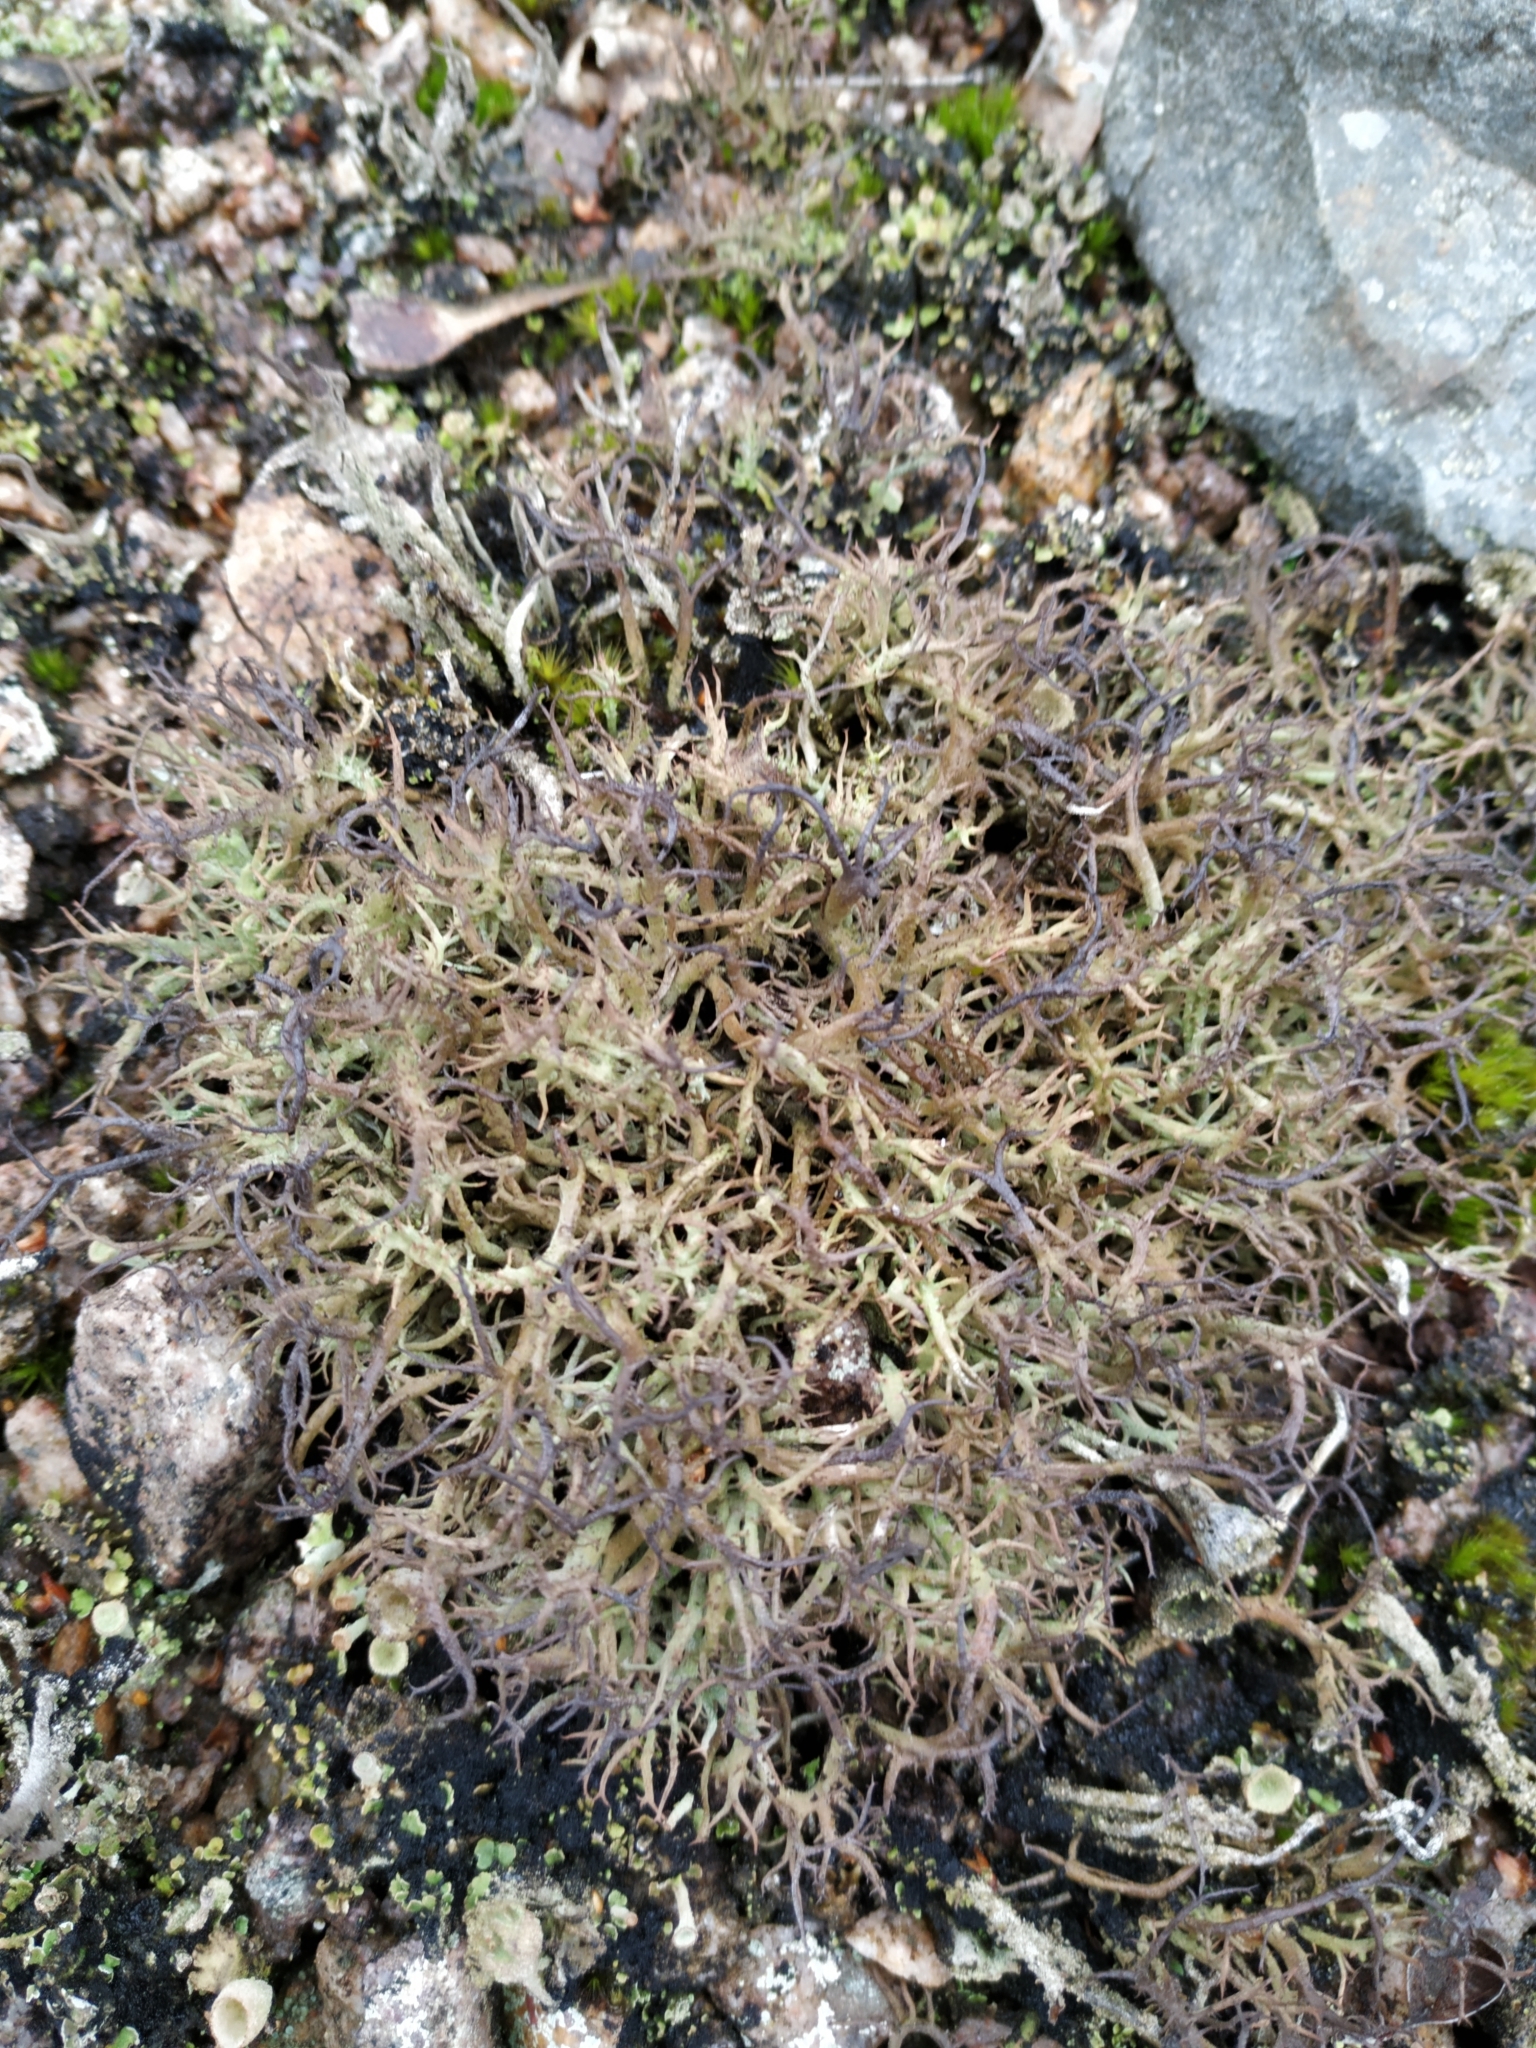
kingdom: Fungi
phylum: Ascomycota
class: Lecanoromycetes
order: Lecanorales
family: Cladoniaceae
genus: Cladonia
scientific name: Cladonia furcata
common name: Many-forked cladonia
